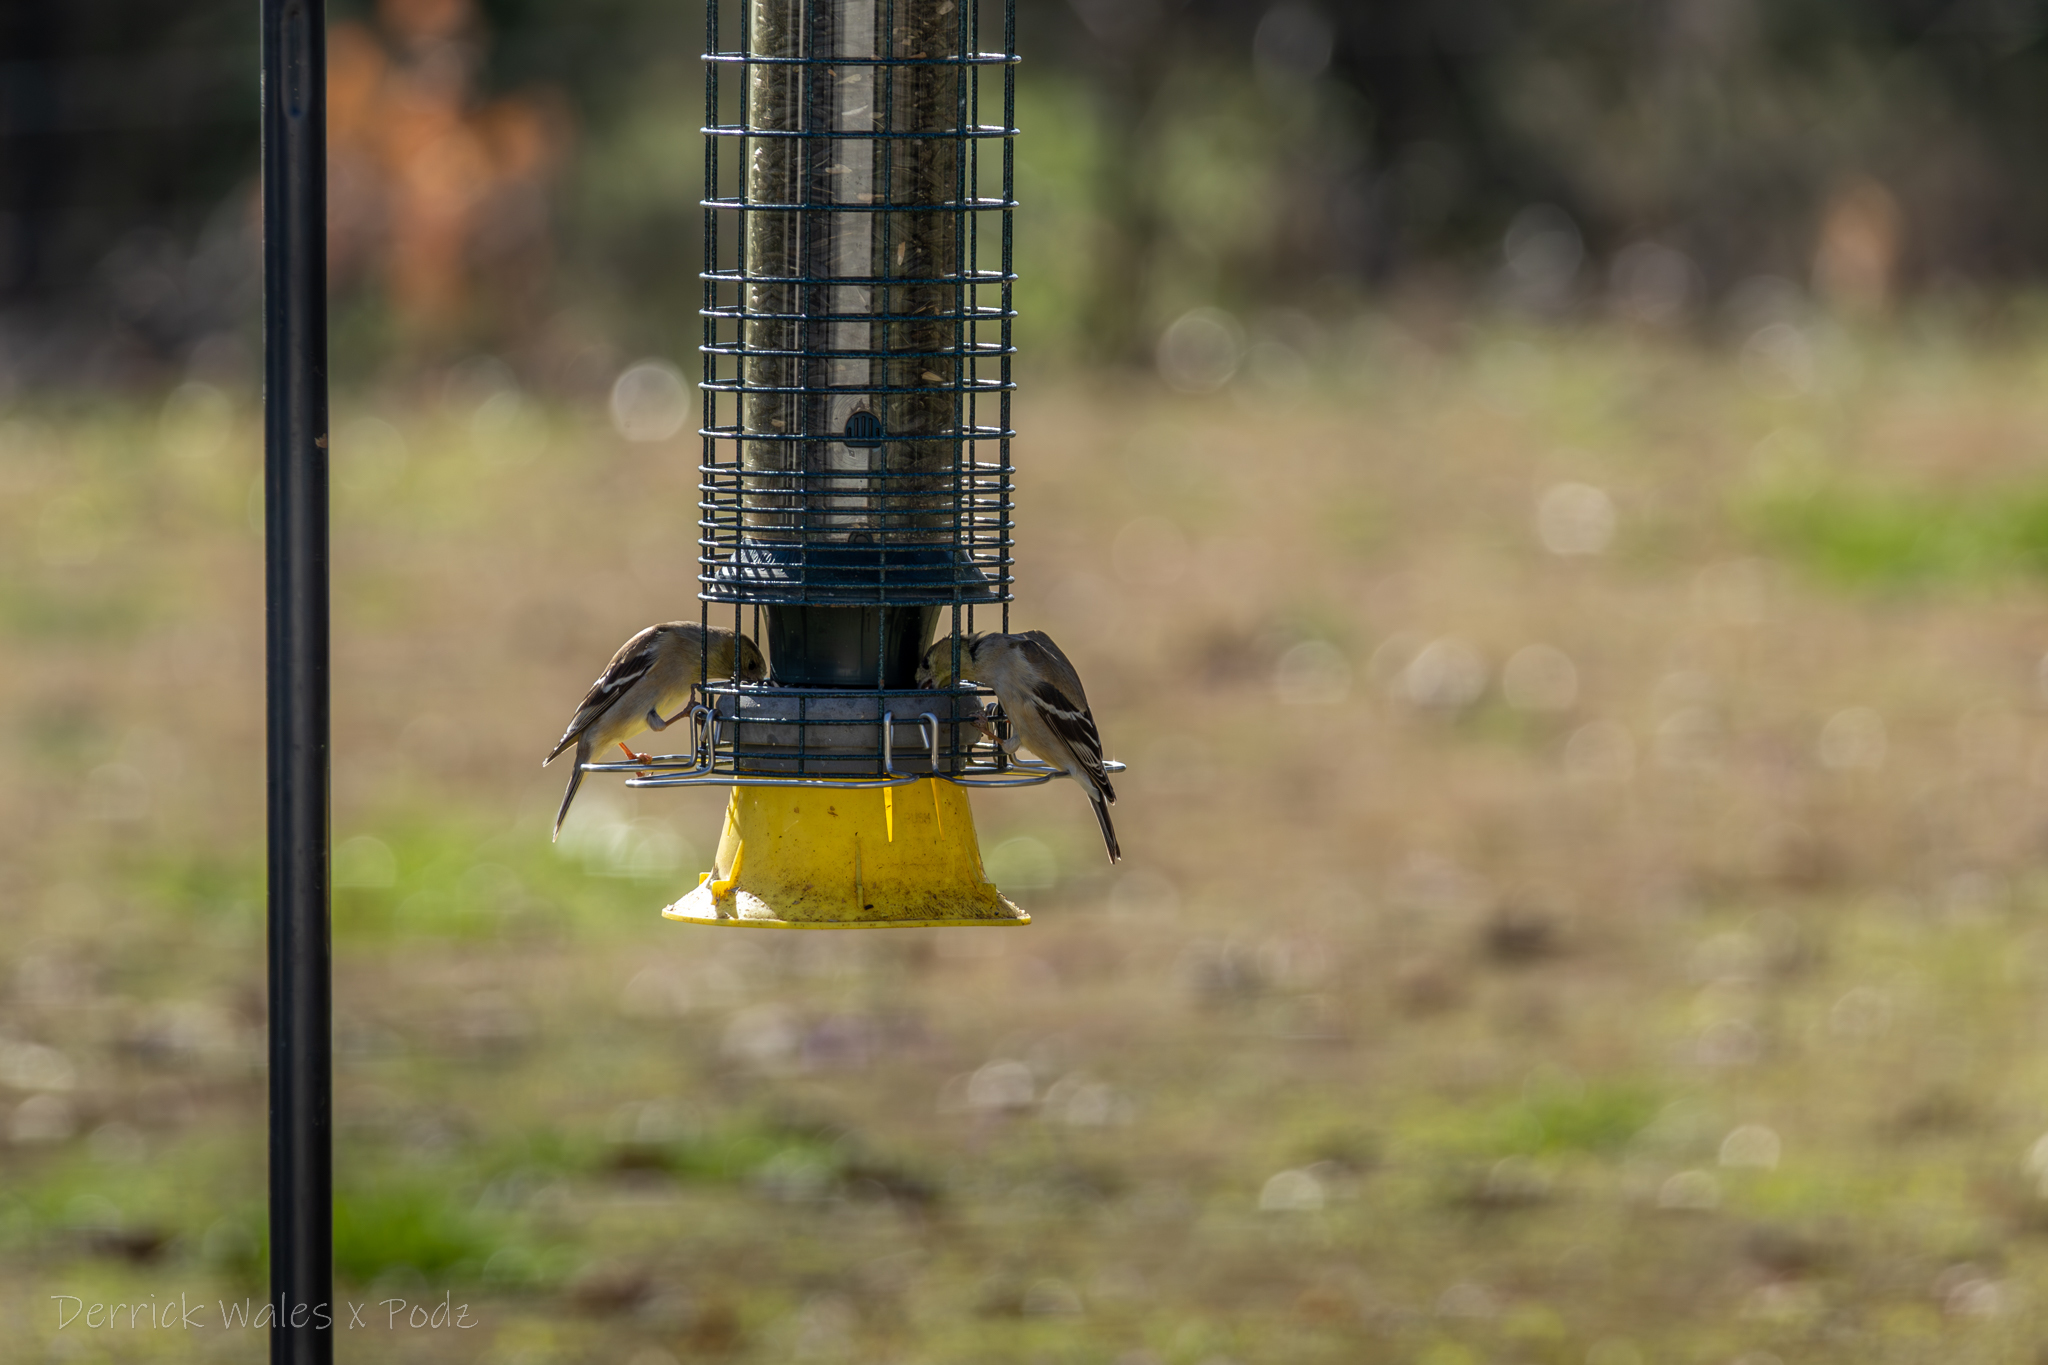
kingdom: Animalia
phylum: Chordata
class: Aves
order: Passeriformes
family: Fringillidae
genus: Spinus
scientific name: Spinus tristis
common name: American goldfinch
